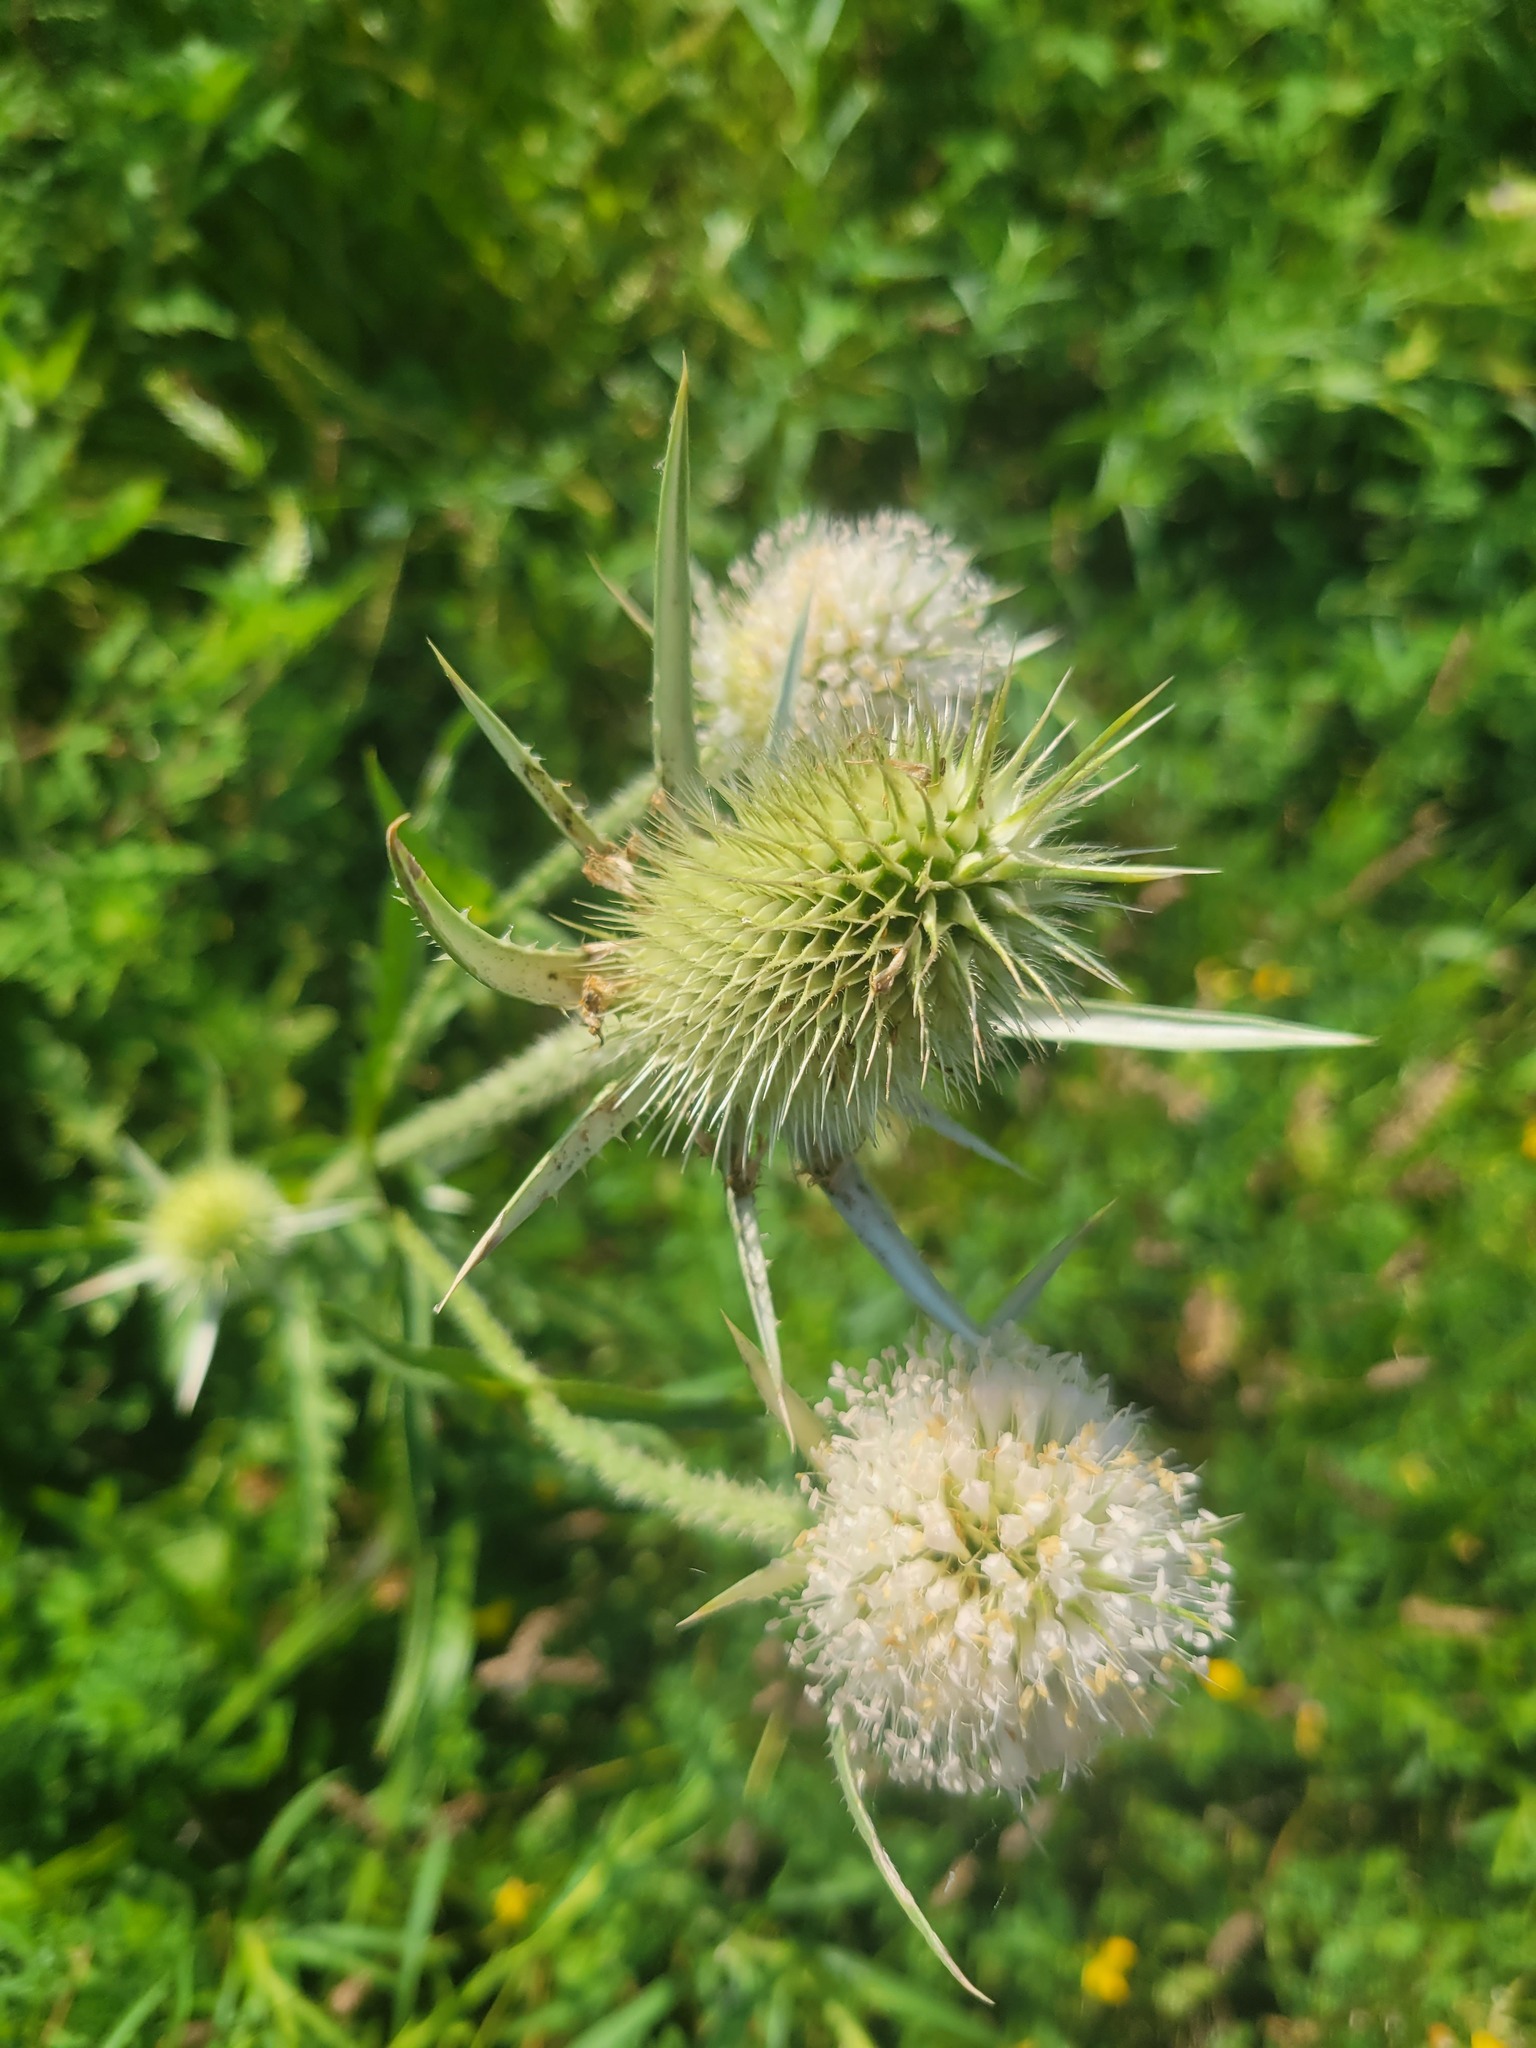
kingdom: Plantae
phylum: Tracheophyta
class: Magnoliopsida
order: Dipsacales
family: Caprifoliaceae
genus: Dipsacus
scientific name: Dipsacus laciniatus
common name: Cut-leaved teasel
